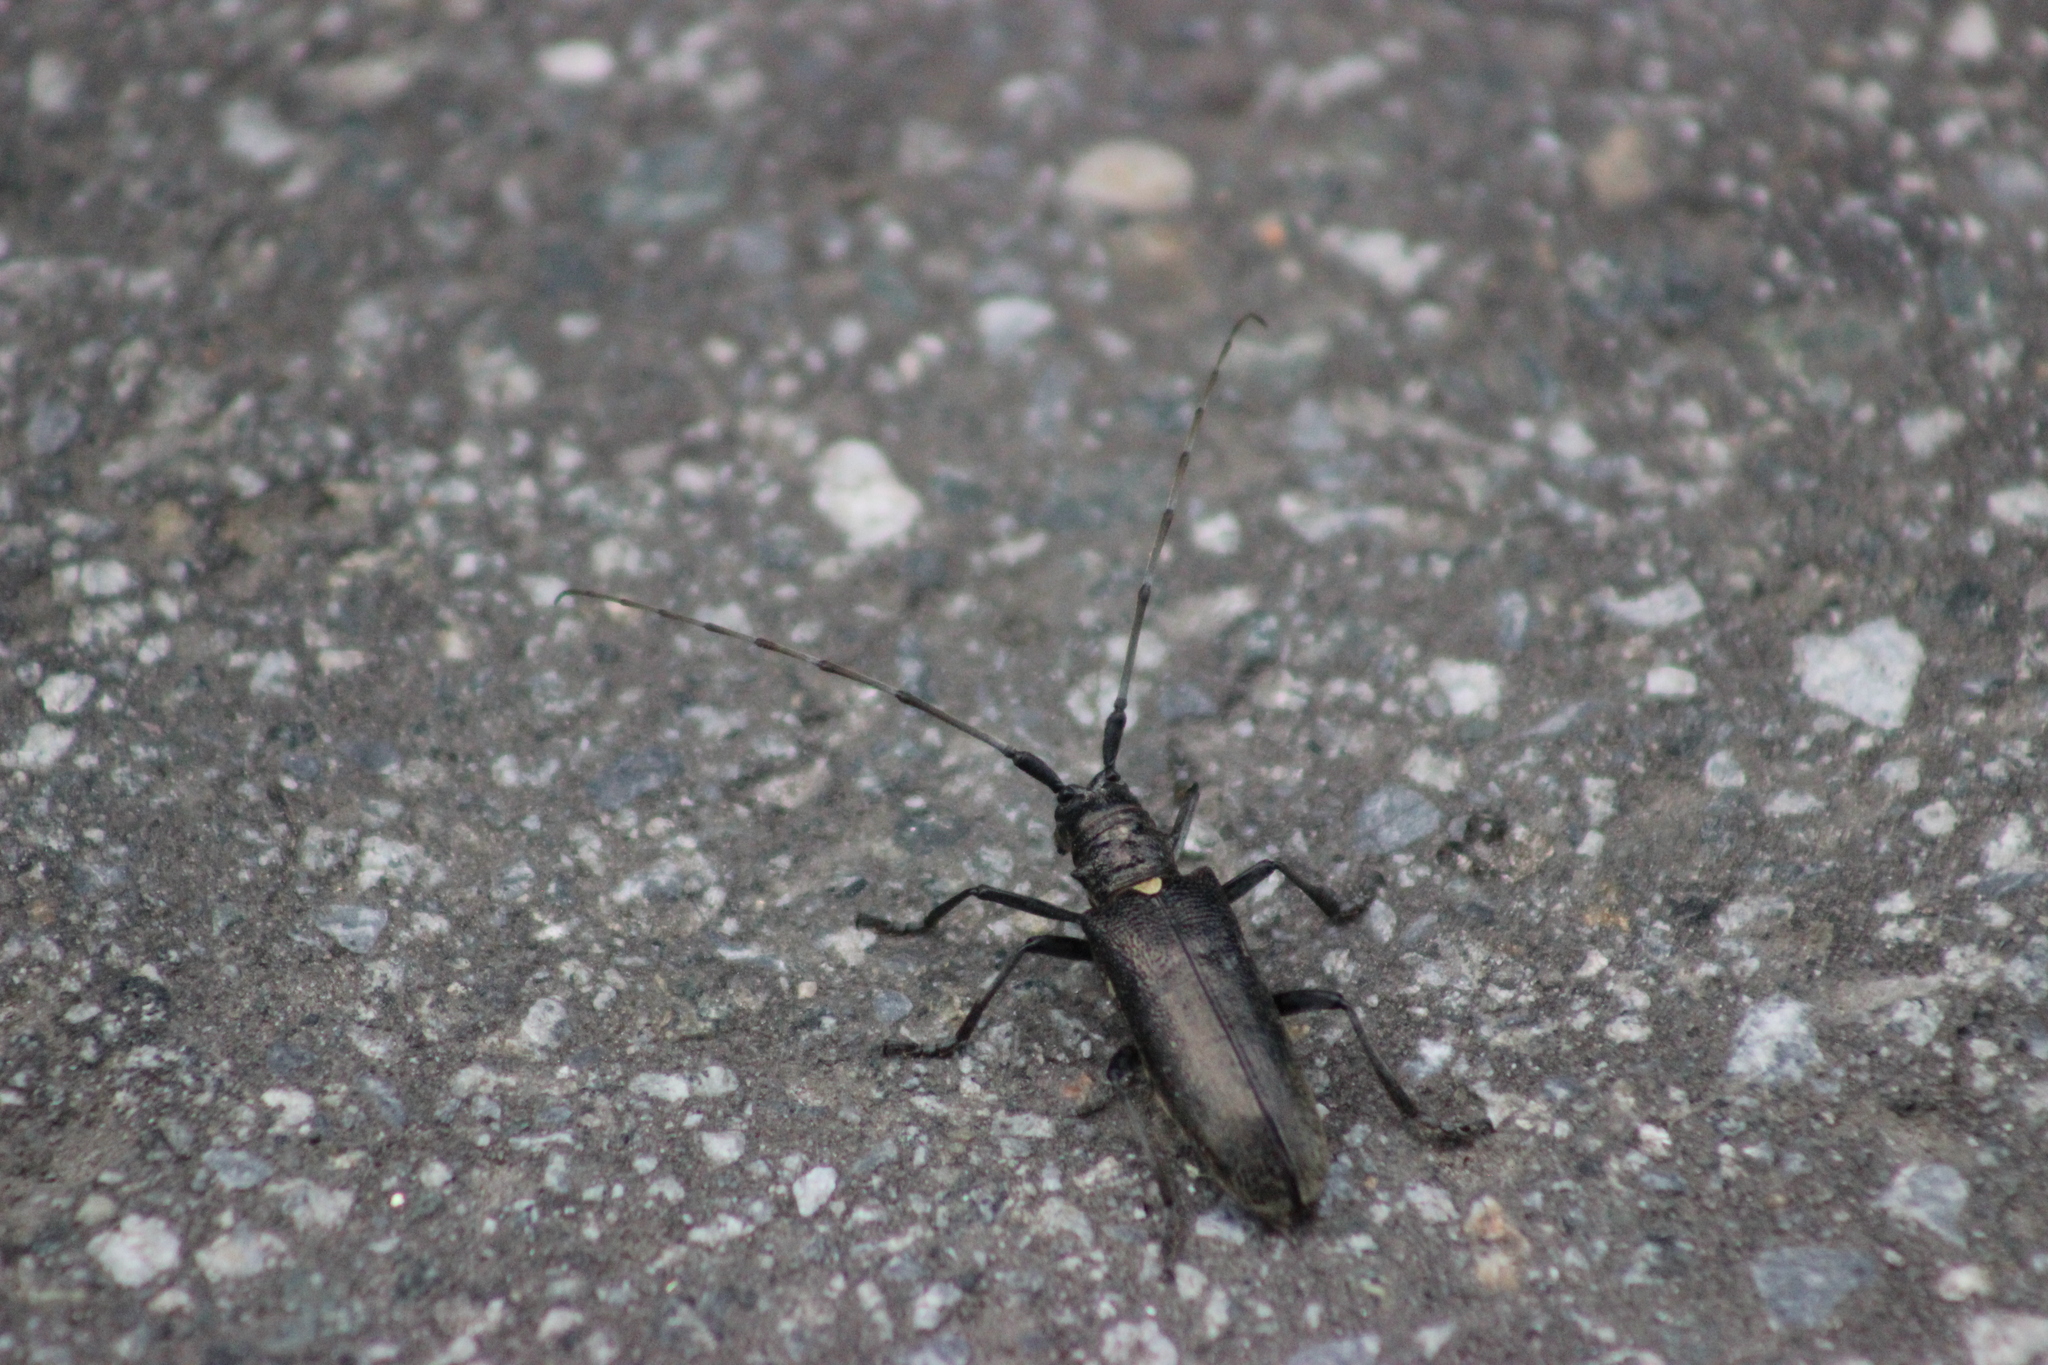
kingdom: Animalia
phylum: Arthropoda
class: Insecta
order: Coleoptera
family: Cerambycidae
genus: Monochamus
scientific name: Monochamus sartor
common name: Pine sawyer
